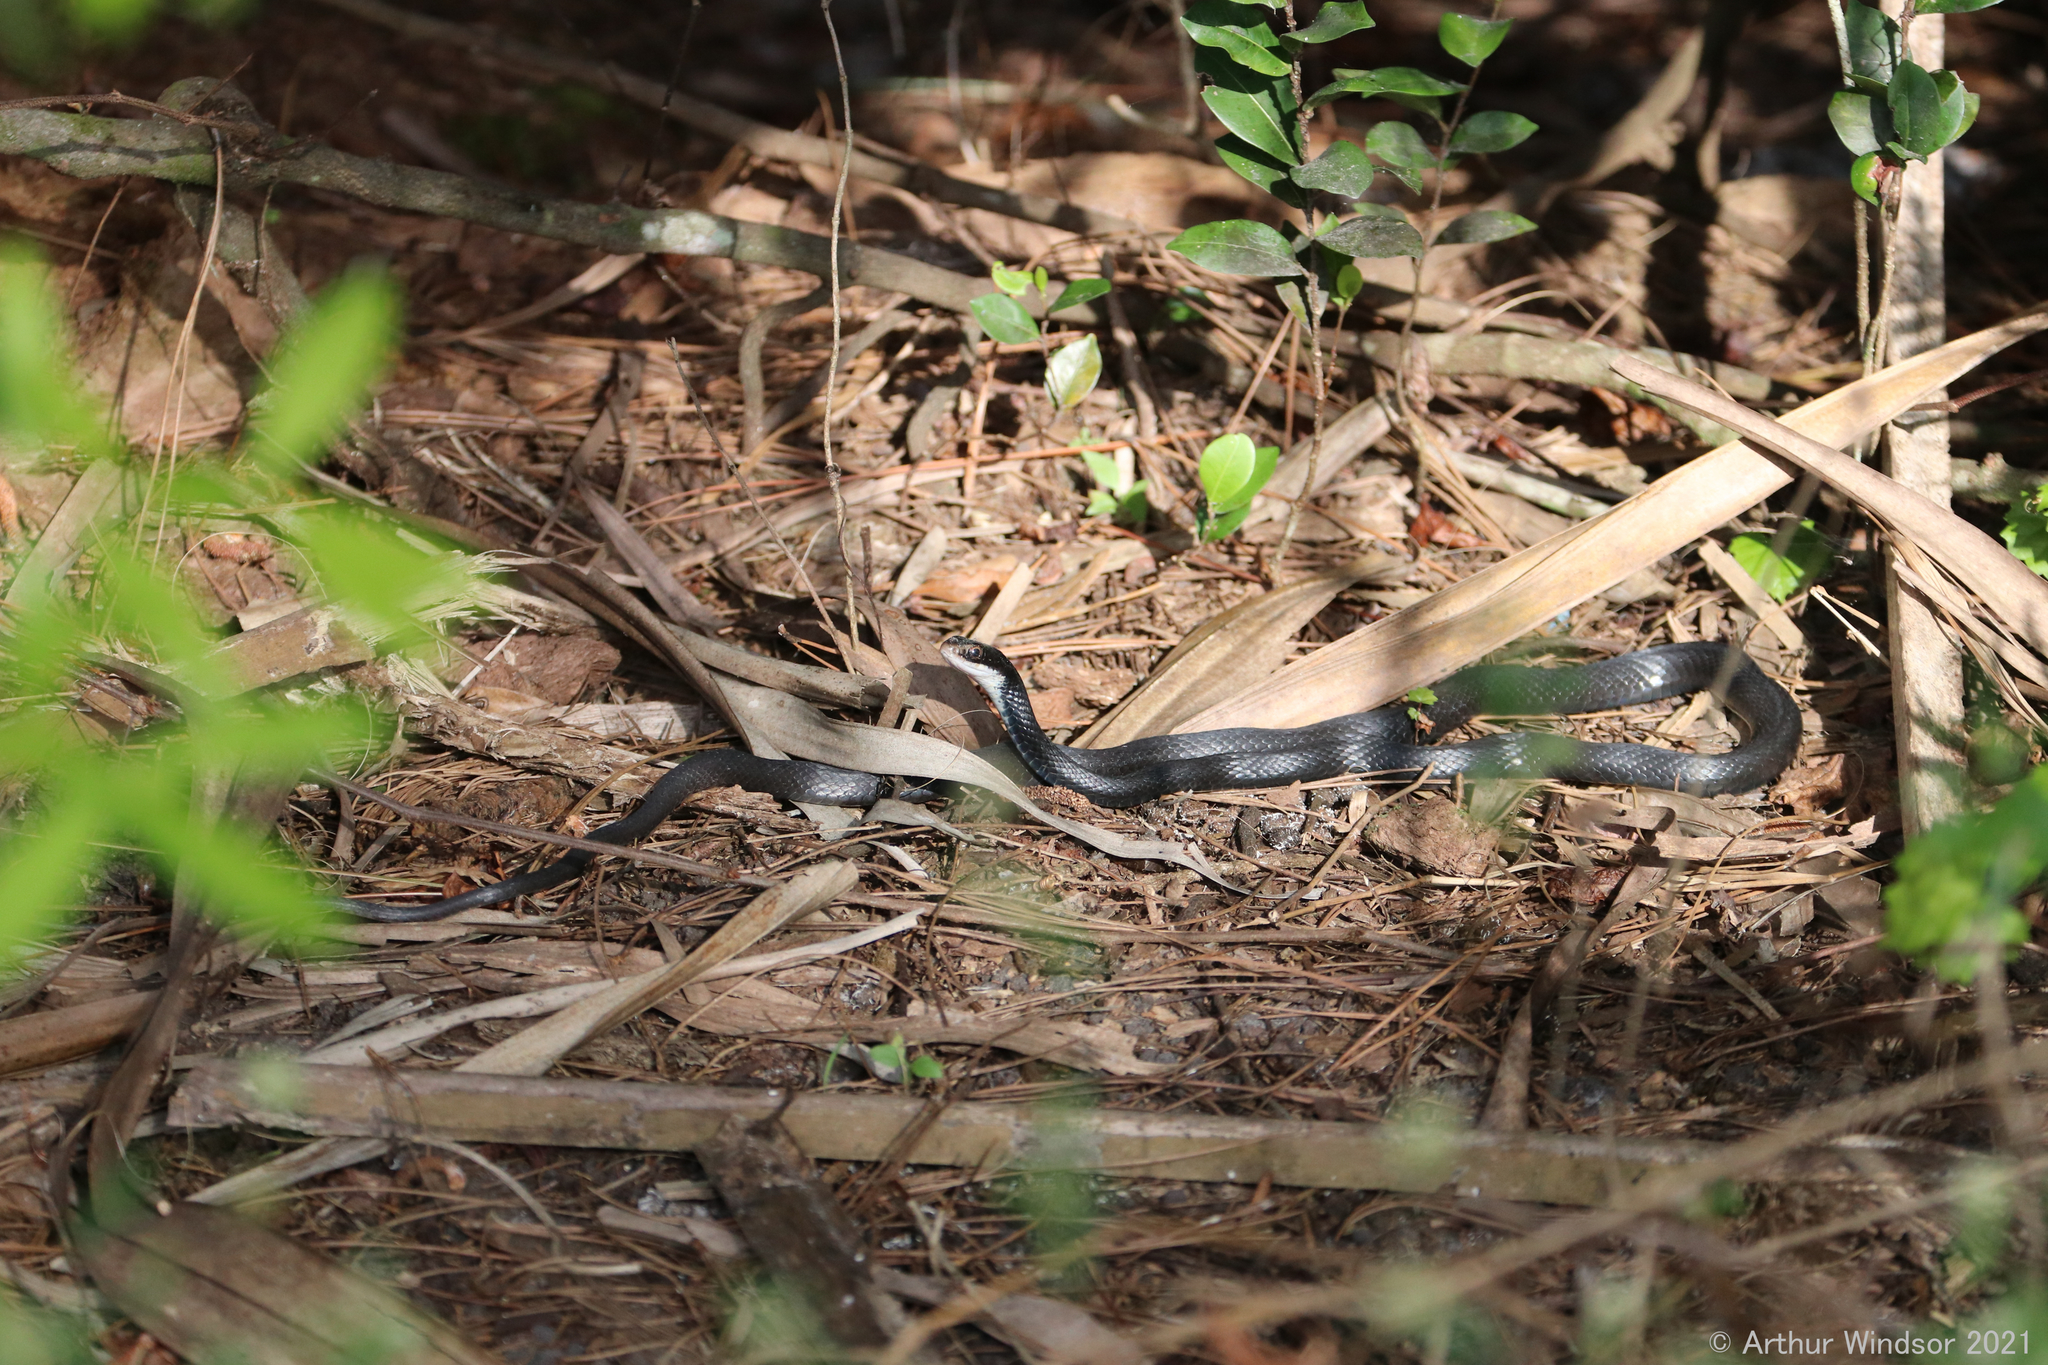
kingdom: Animalia
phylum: Chordata
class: Squamata
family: Colubridae
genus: Coluber
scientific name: Coluber constrictor
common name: Eastern racer
